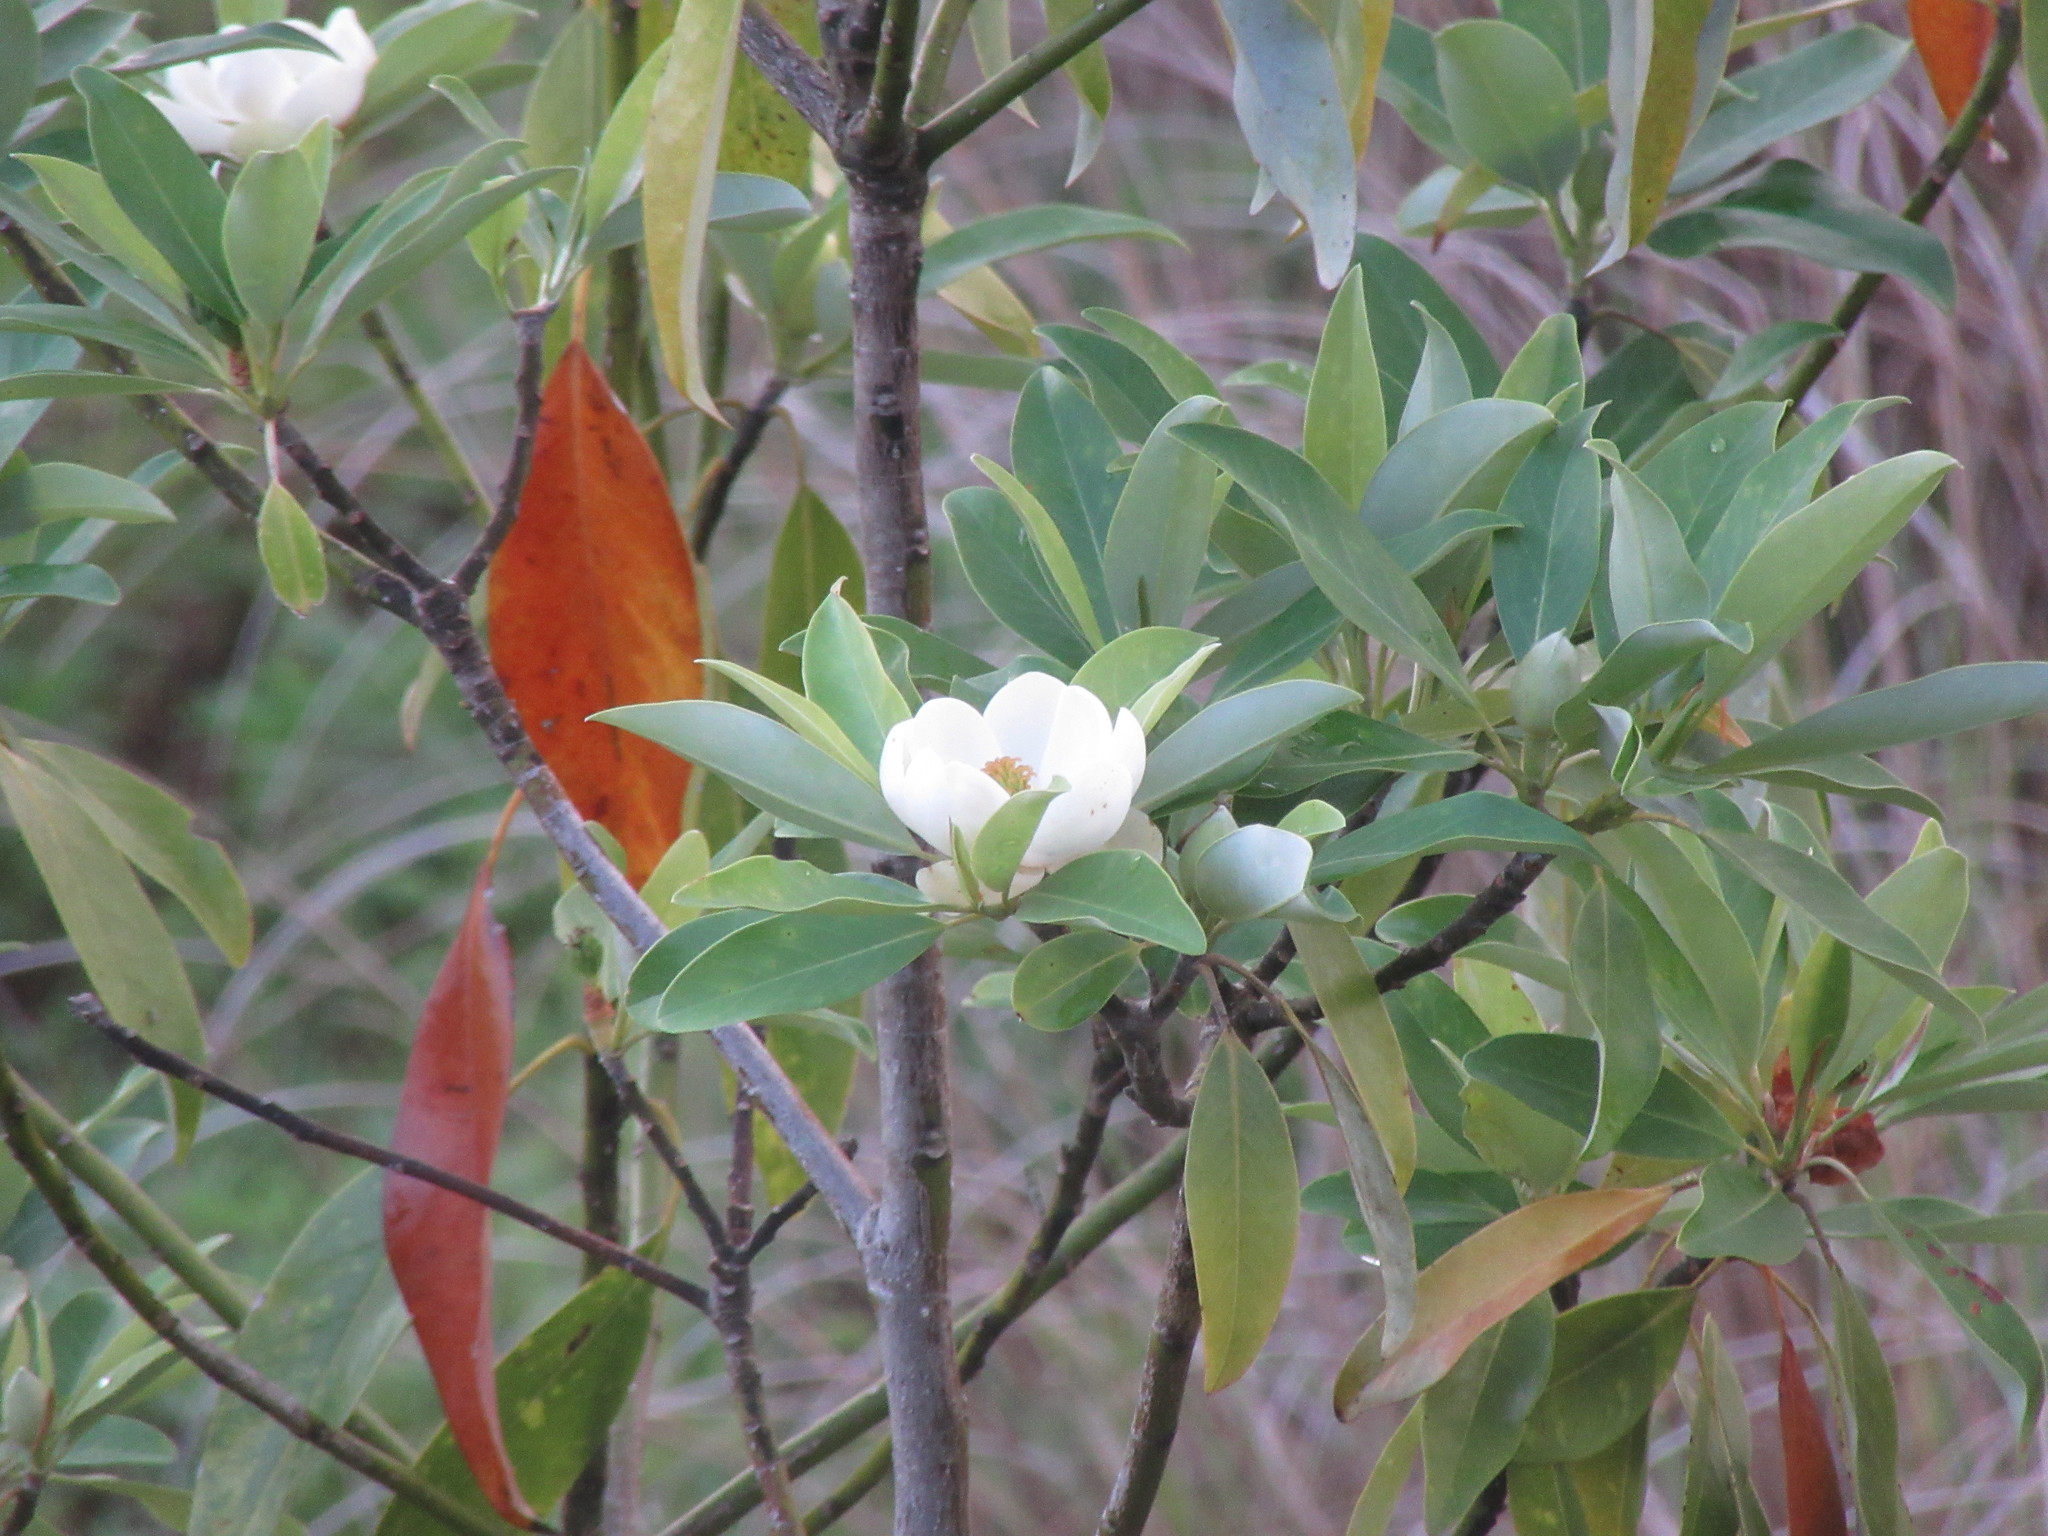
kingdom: Plantae
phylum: Tracheophyta
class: Magnoliopsida
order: Magnoliales
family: Magnoliaceae
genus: Magnolia
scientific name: Magnolia virginiana
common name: Swamp bay
